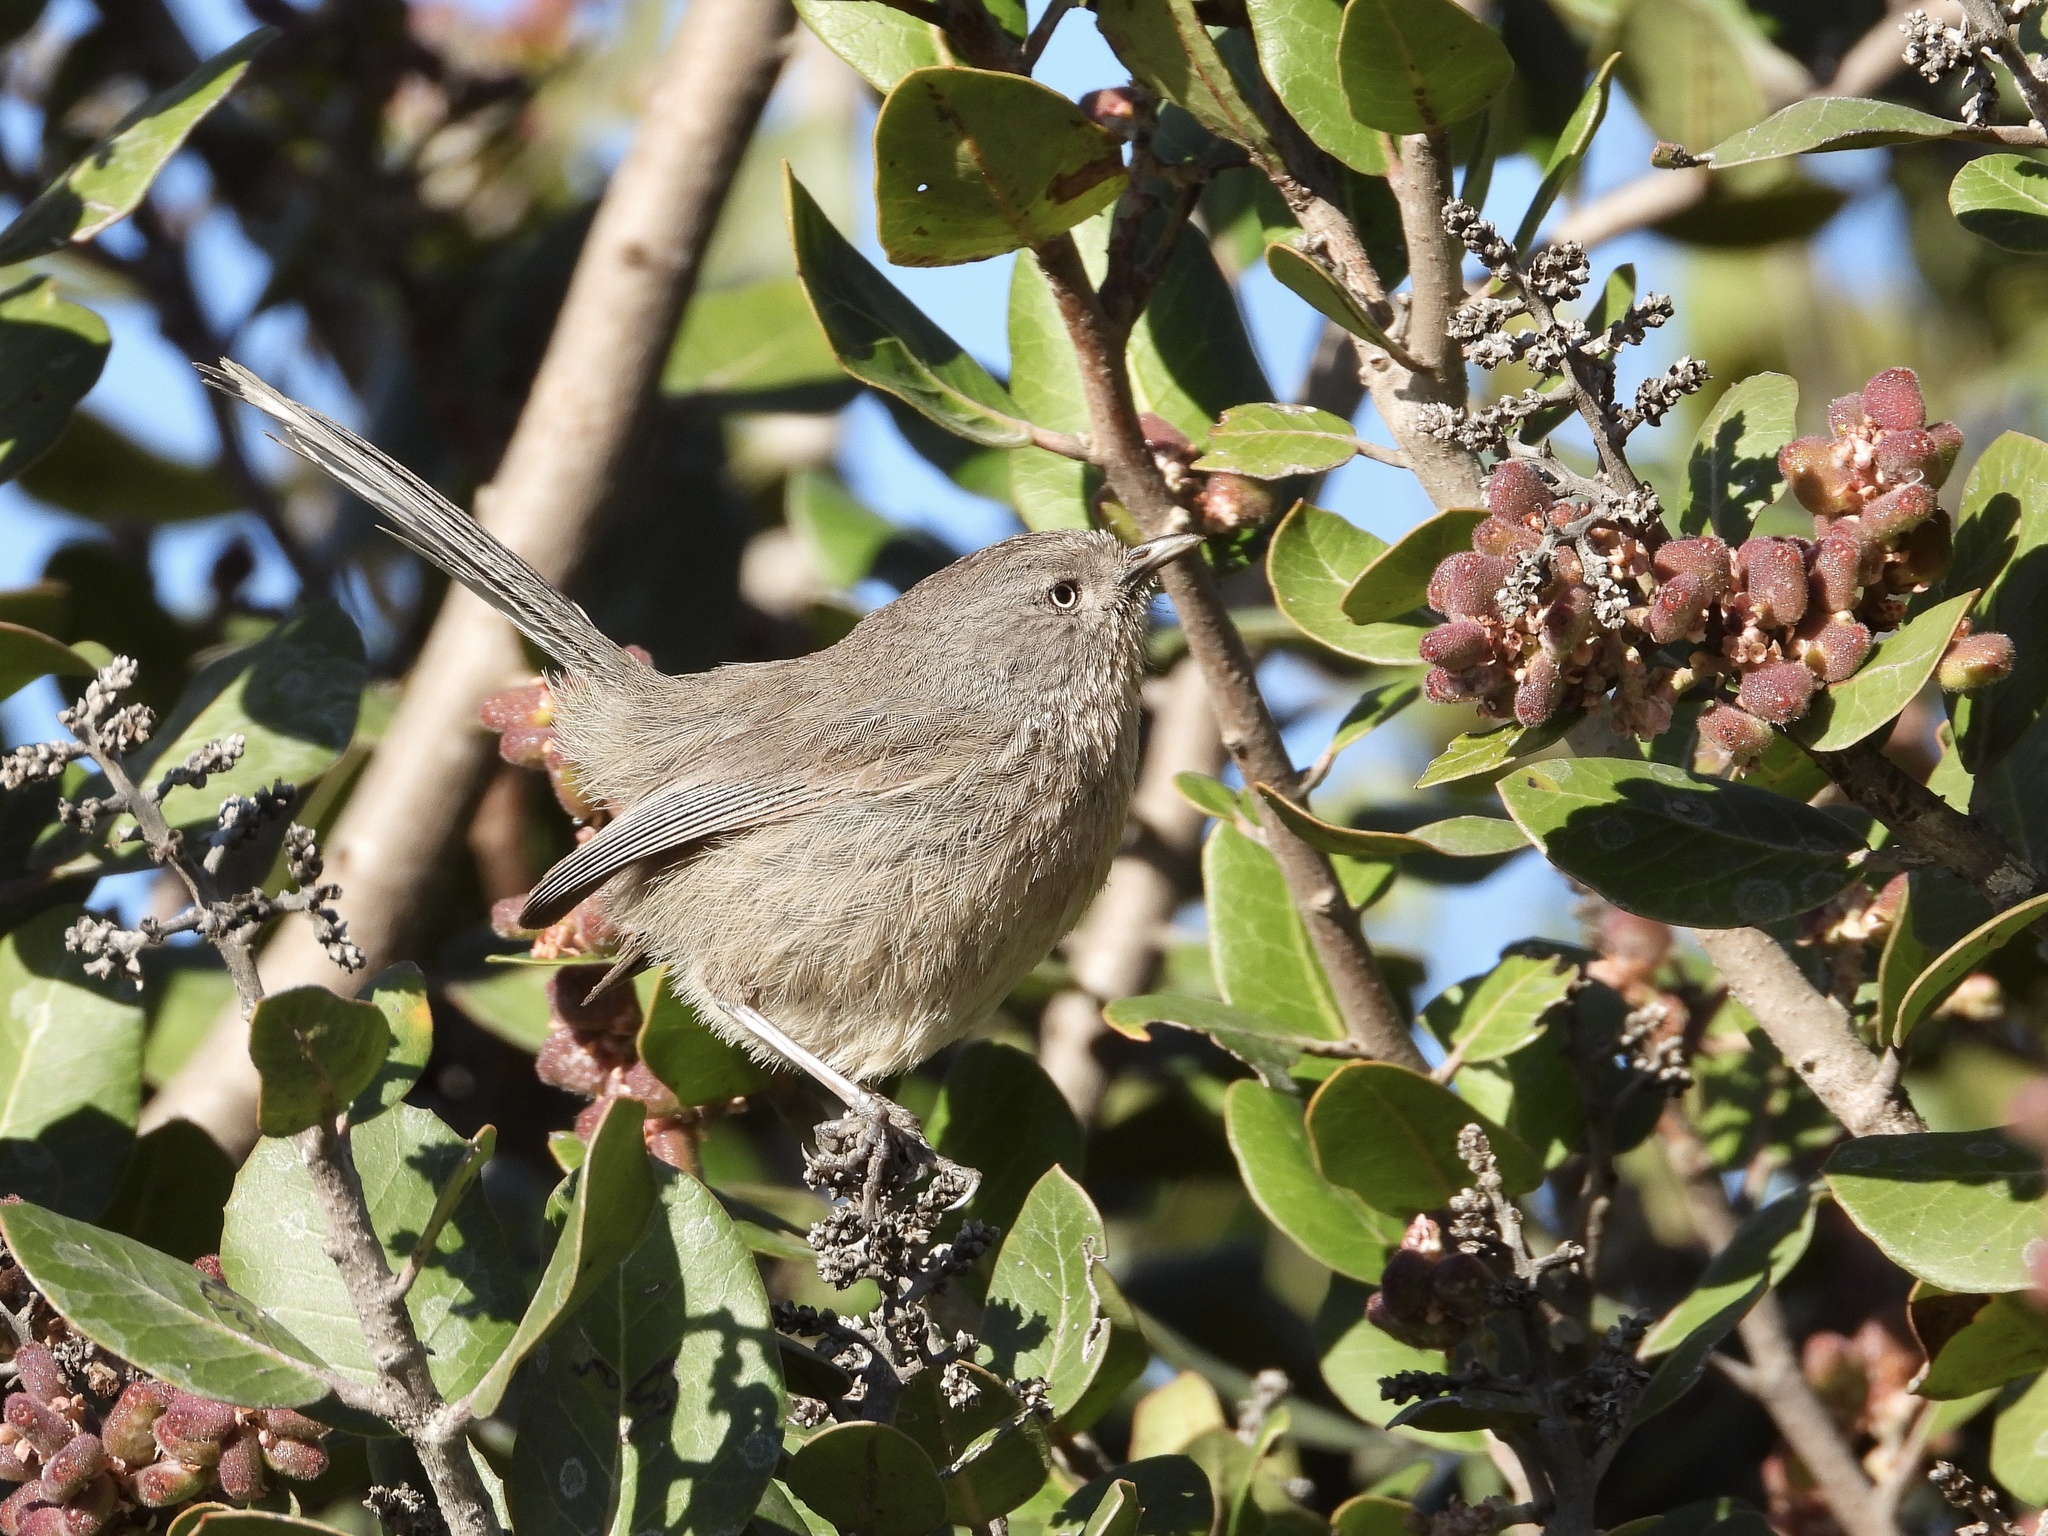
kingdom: Animalia
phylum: Chordata
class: Aves
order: Passeriformes
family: Sylviidae
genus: Chamaea
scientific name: Chamaea fasciata
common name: Wrentit
